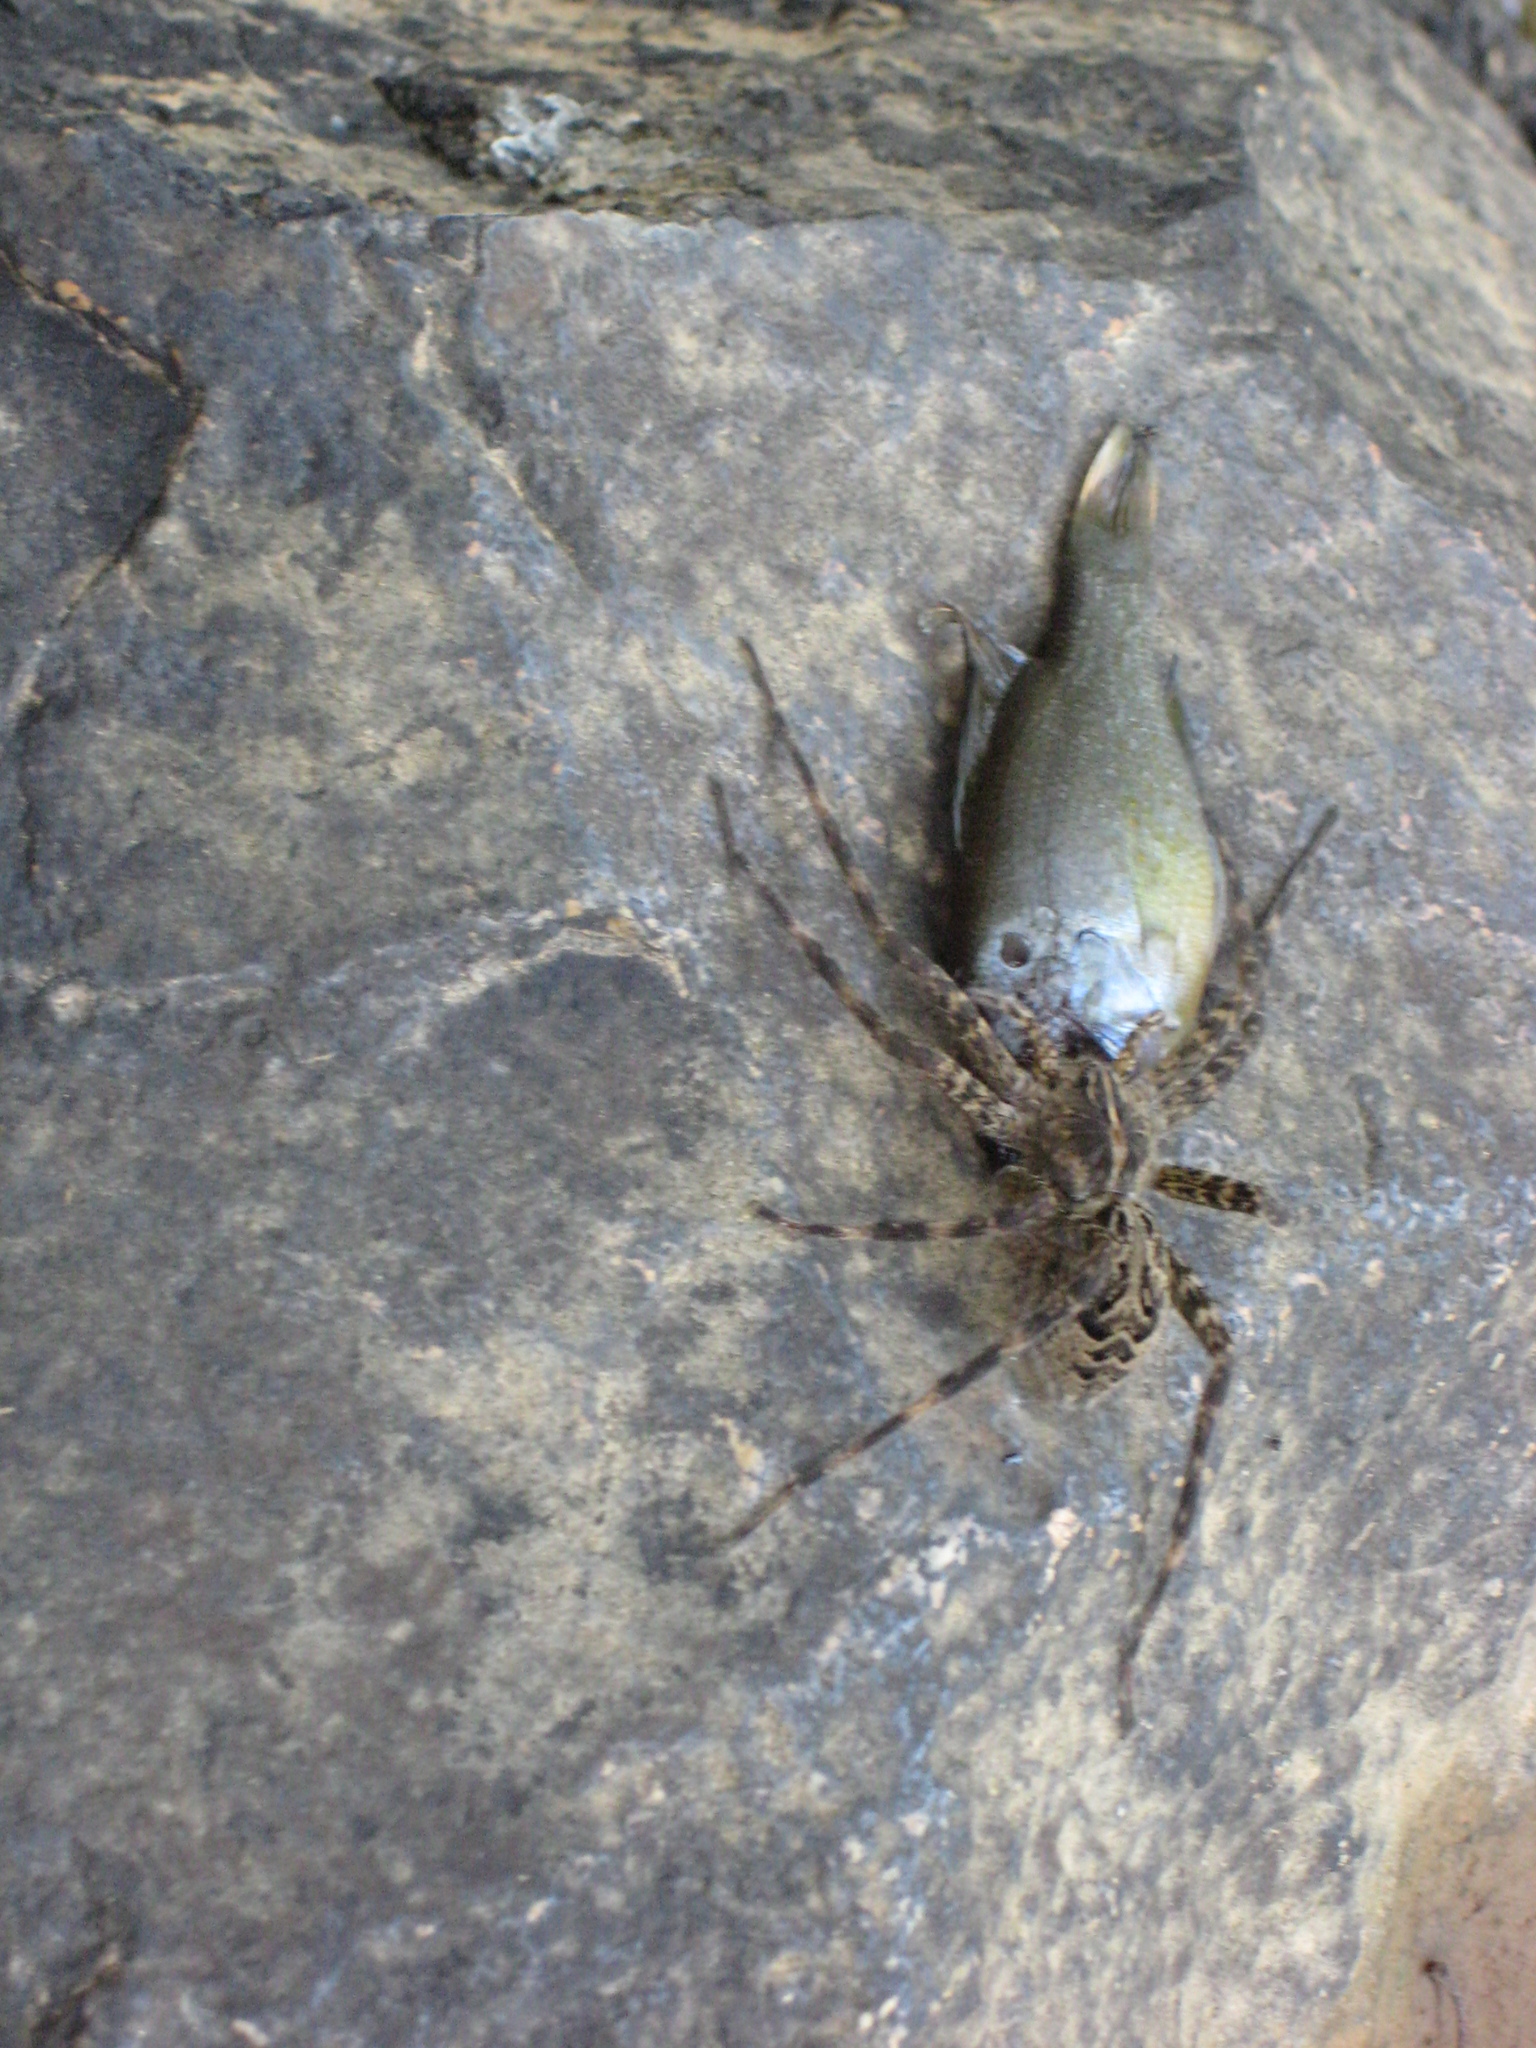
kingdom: Animalia
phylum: Arthropoda
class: Arachnida
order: Araneae
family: Pisauridae
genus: Dolomedes
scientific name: Dolomedes scriptus
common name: Striped fishing spider
